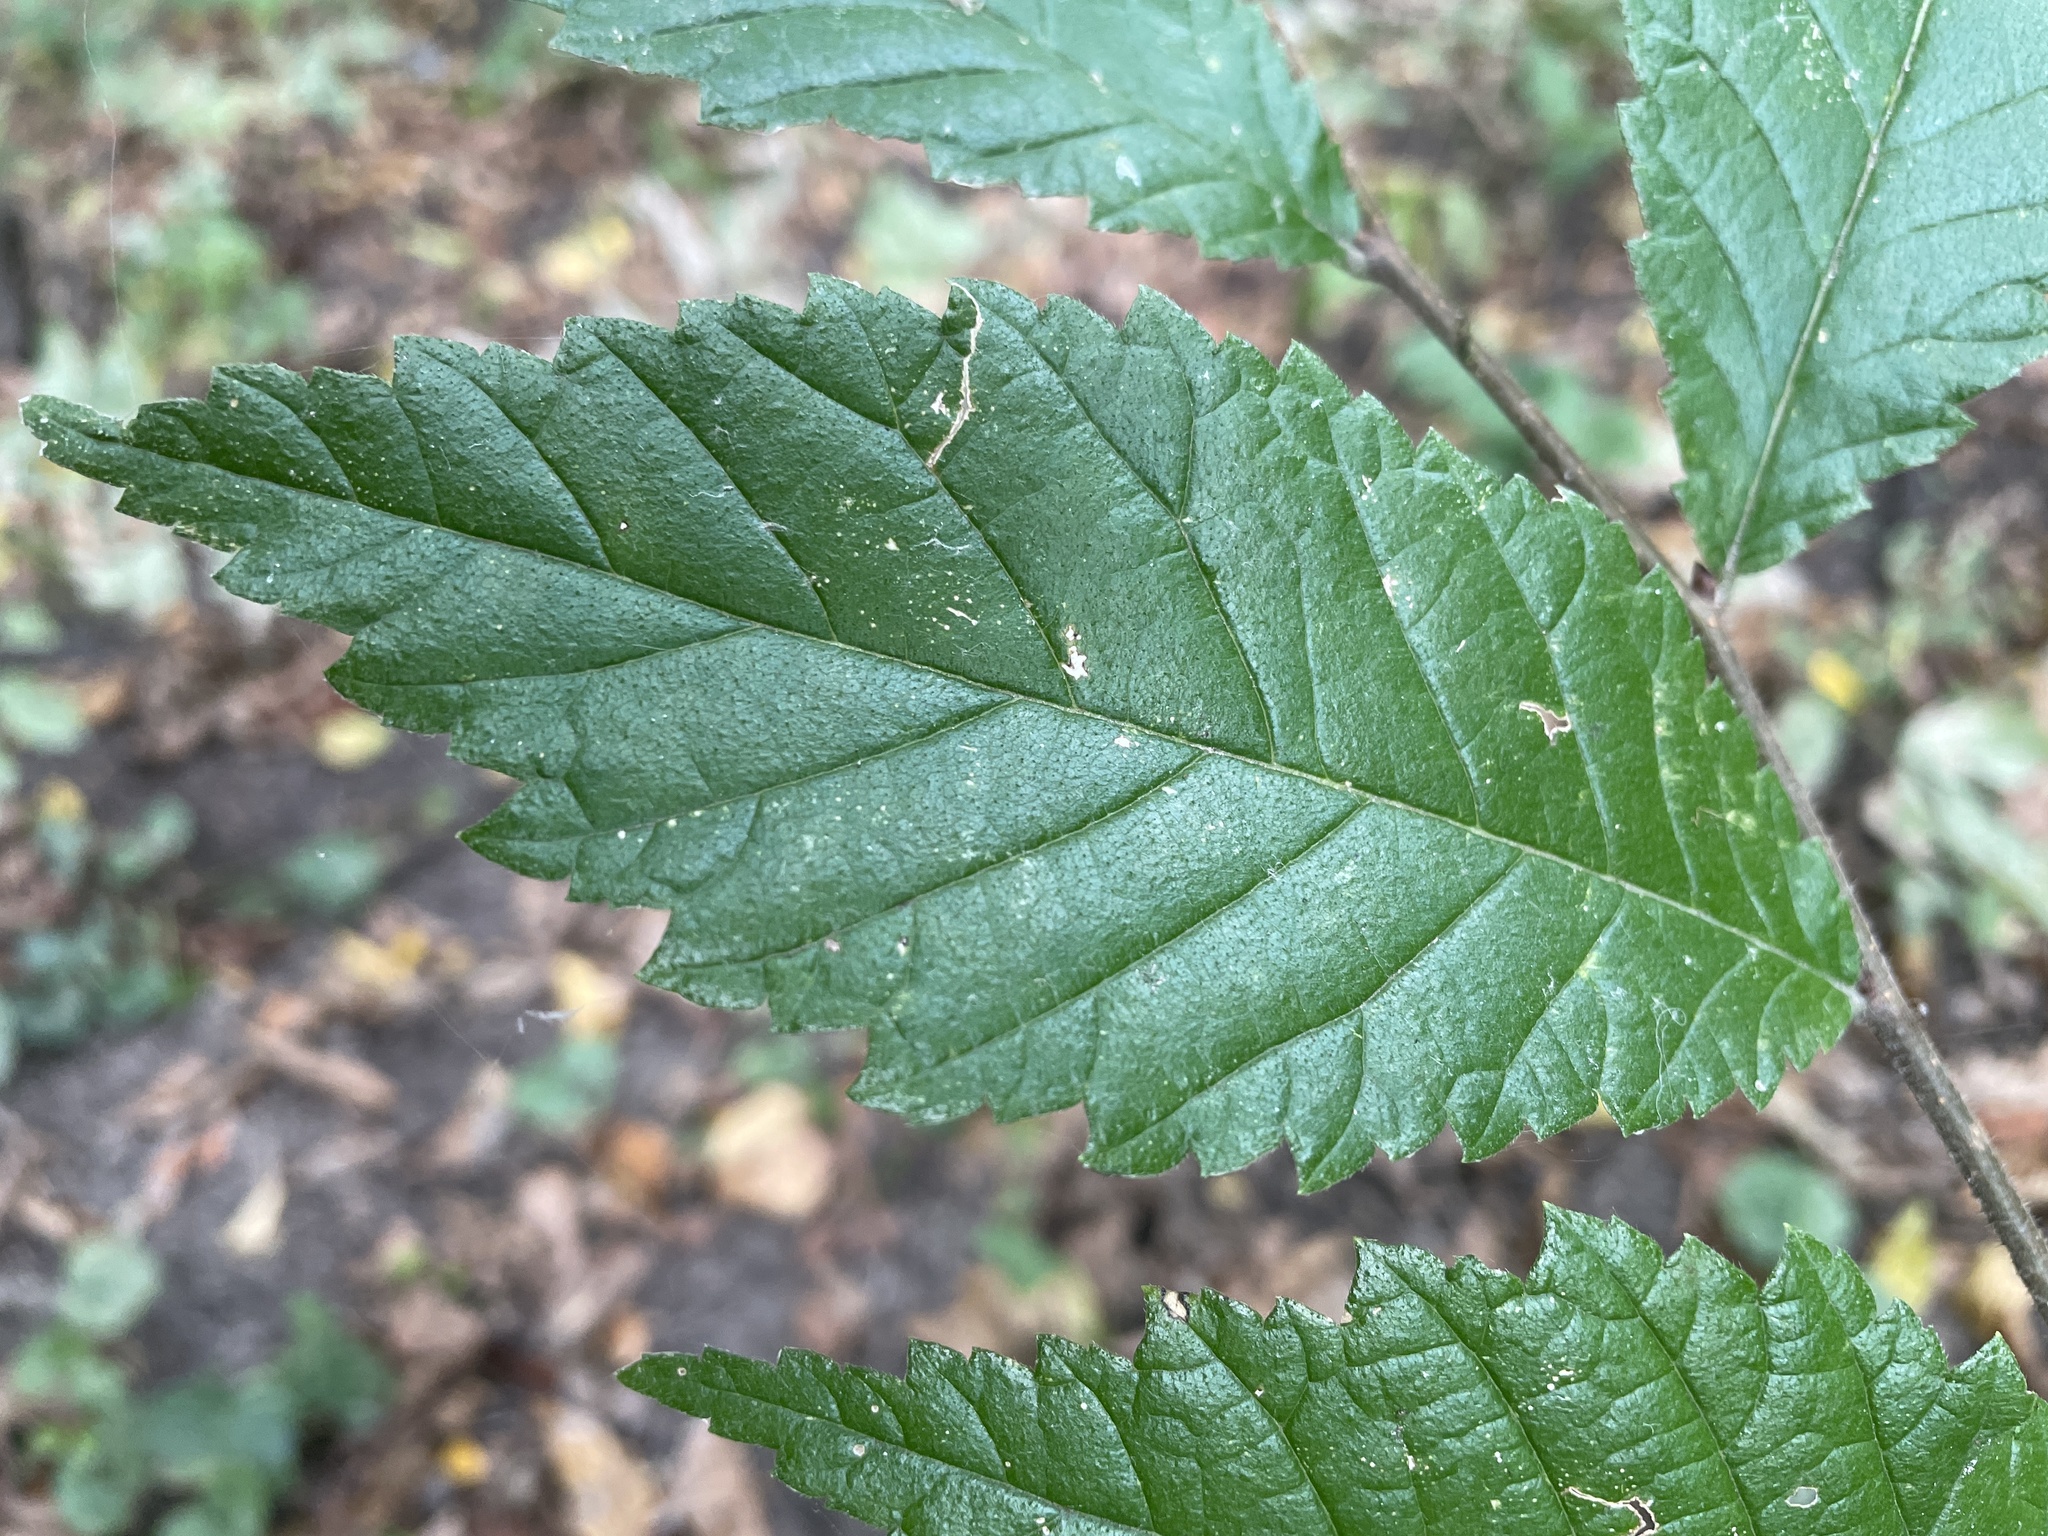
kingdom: Plantae
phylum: Tracheophyta
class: Magnoliopsida
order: Rosales
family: Ulmaceae
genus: Ulmus
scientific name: Ulmus minor
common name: Small-leaved elm
